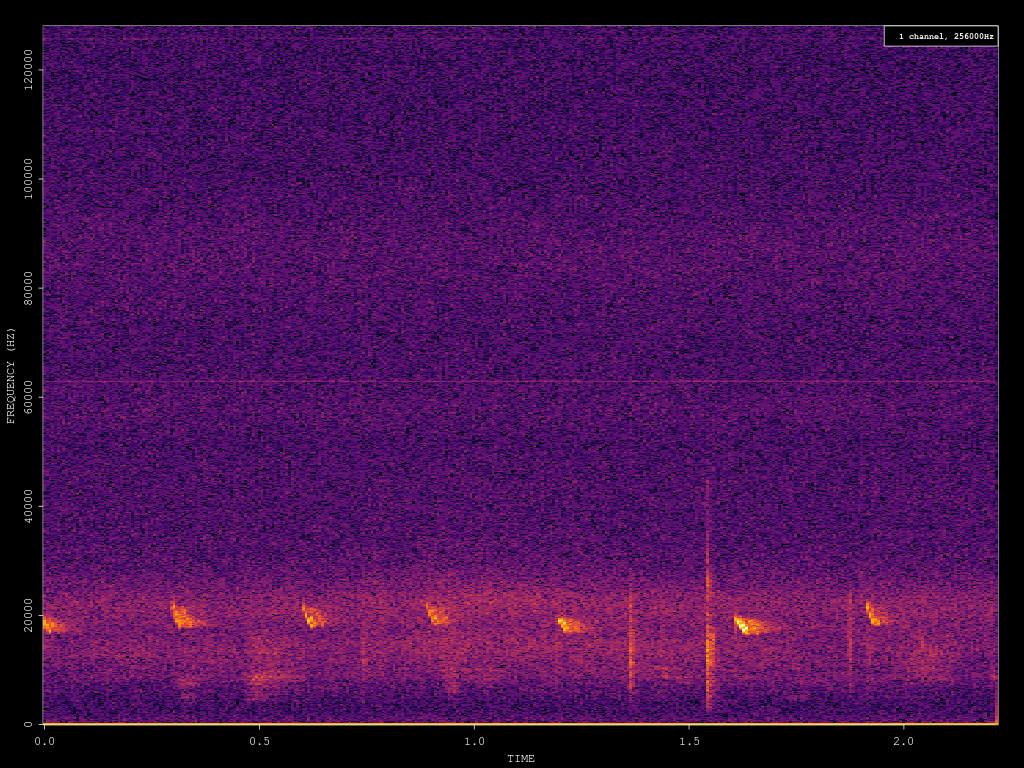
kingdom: Animalia
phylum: Chordata
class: Mammalia
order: Chiroptera
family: Vespertilionidae
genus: Nyctalus
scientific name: Nyctalus noctula
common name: Noctule
